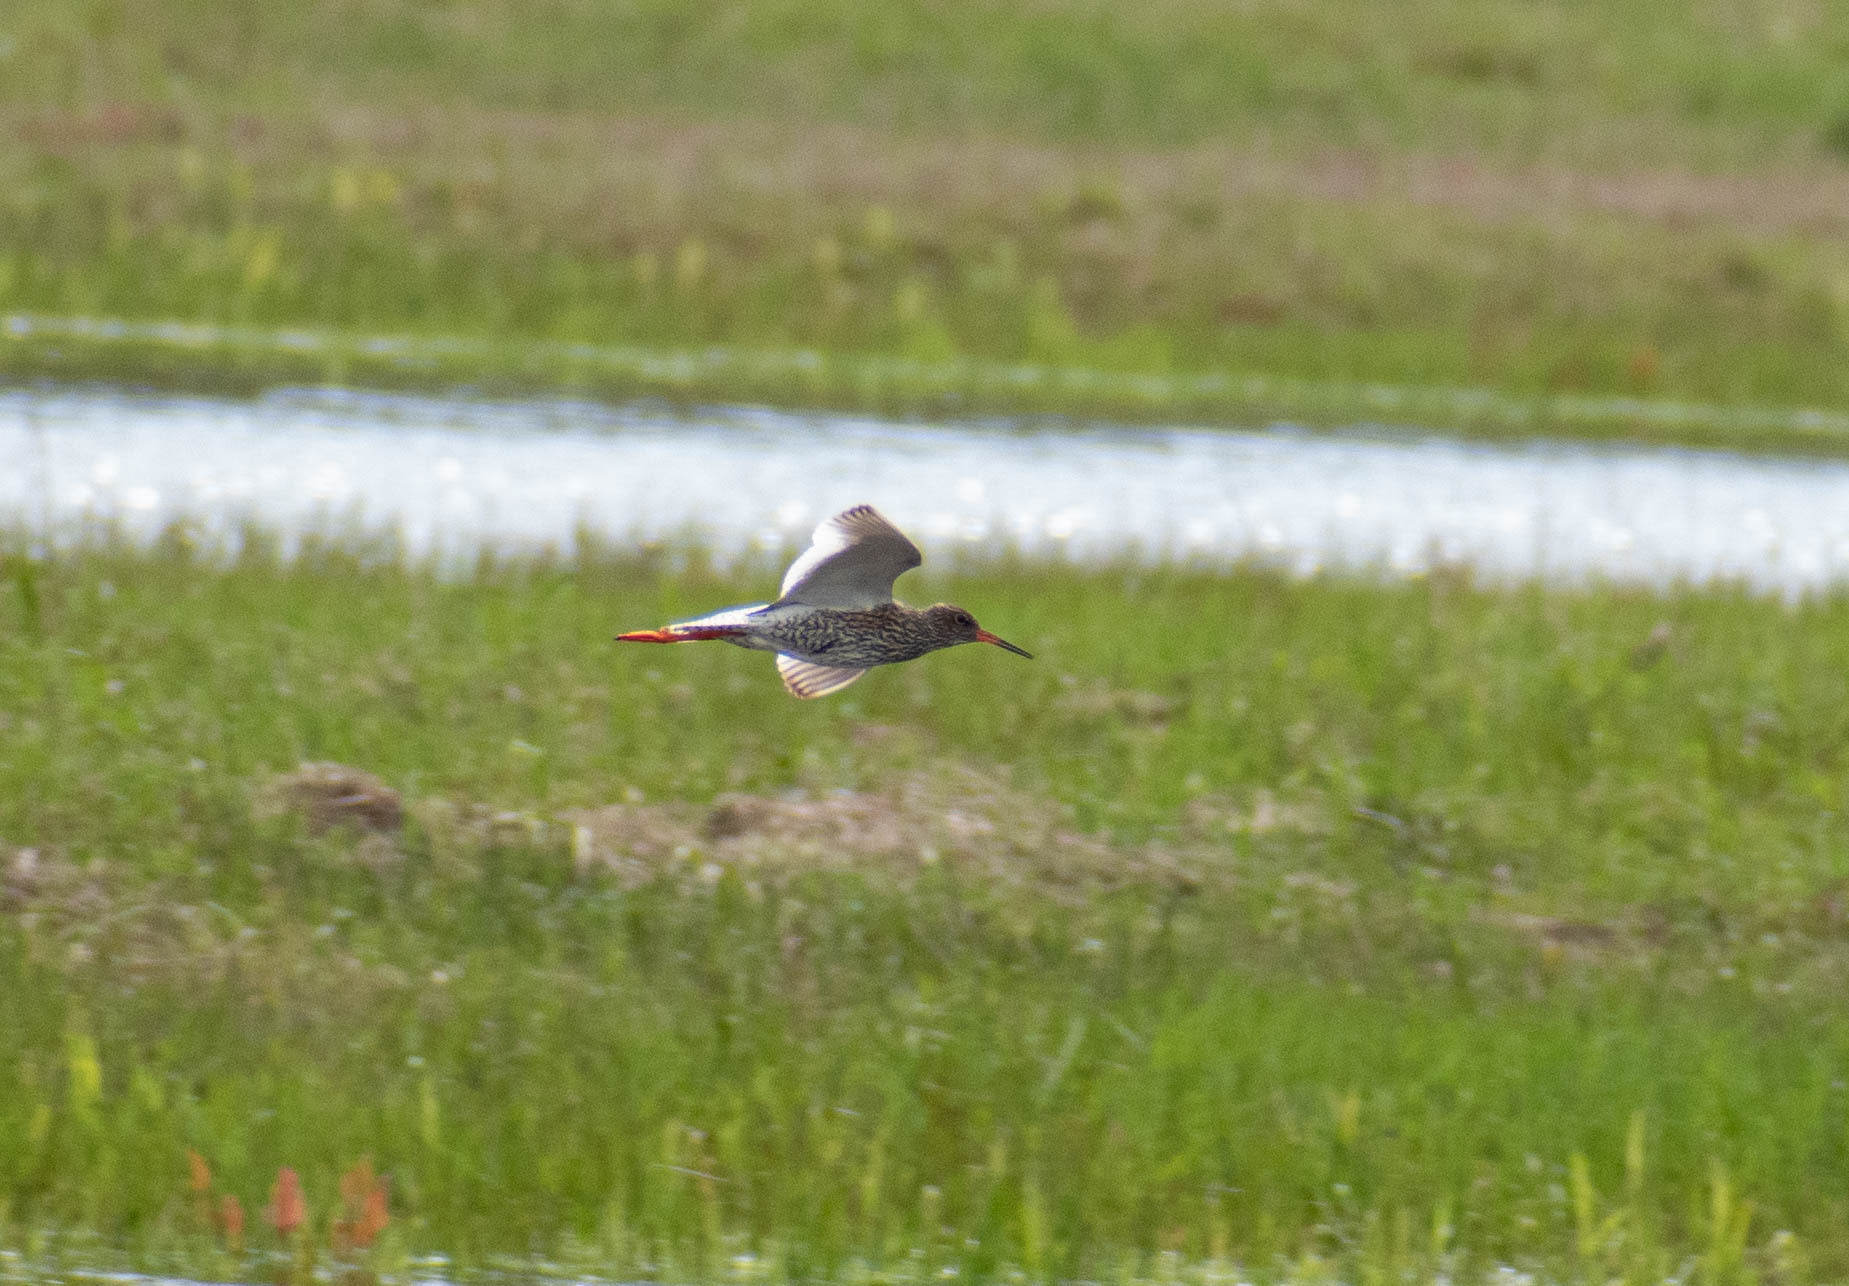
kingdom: Animalia
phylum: Chordata
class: Aves
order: Charadriiformes
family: Scolopacidae
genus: Tringa
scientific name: Tringa totanus
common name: Common redshank
